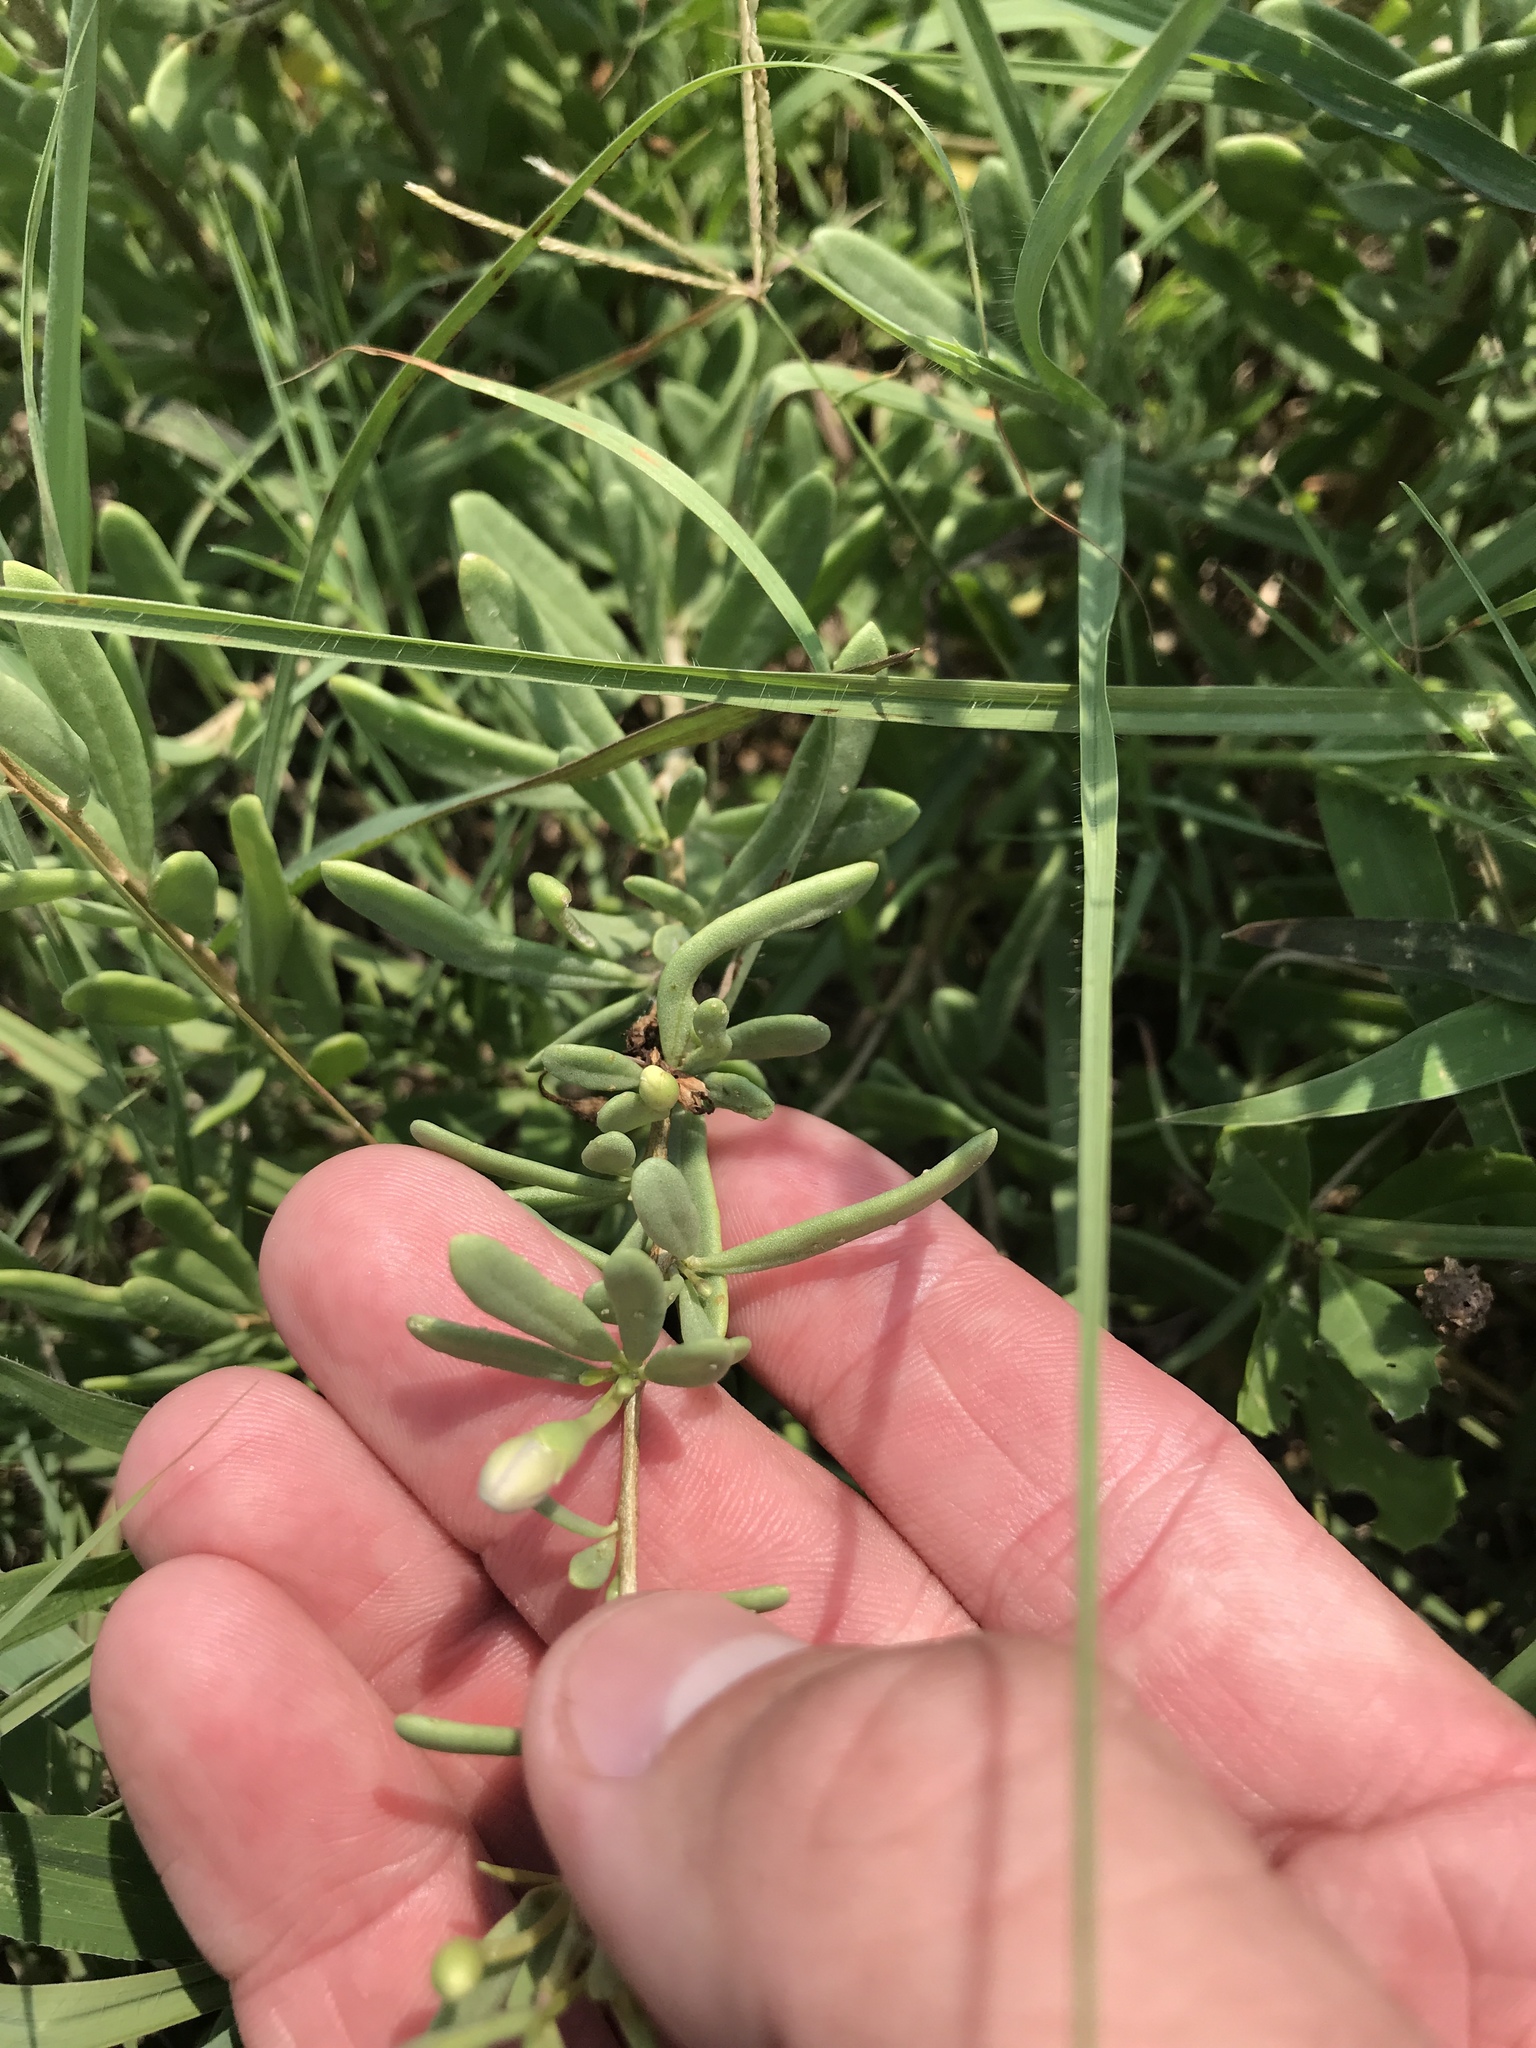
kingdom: Plantae
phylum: Tracheophyta
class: Magnoliopsida
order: Solanales
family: Solanaceae
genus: Lycium
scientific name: Lycium carolinianum
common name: Christmasberry
